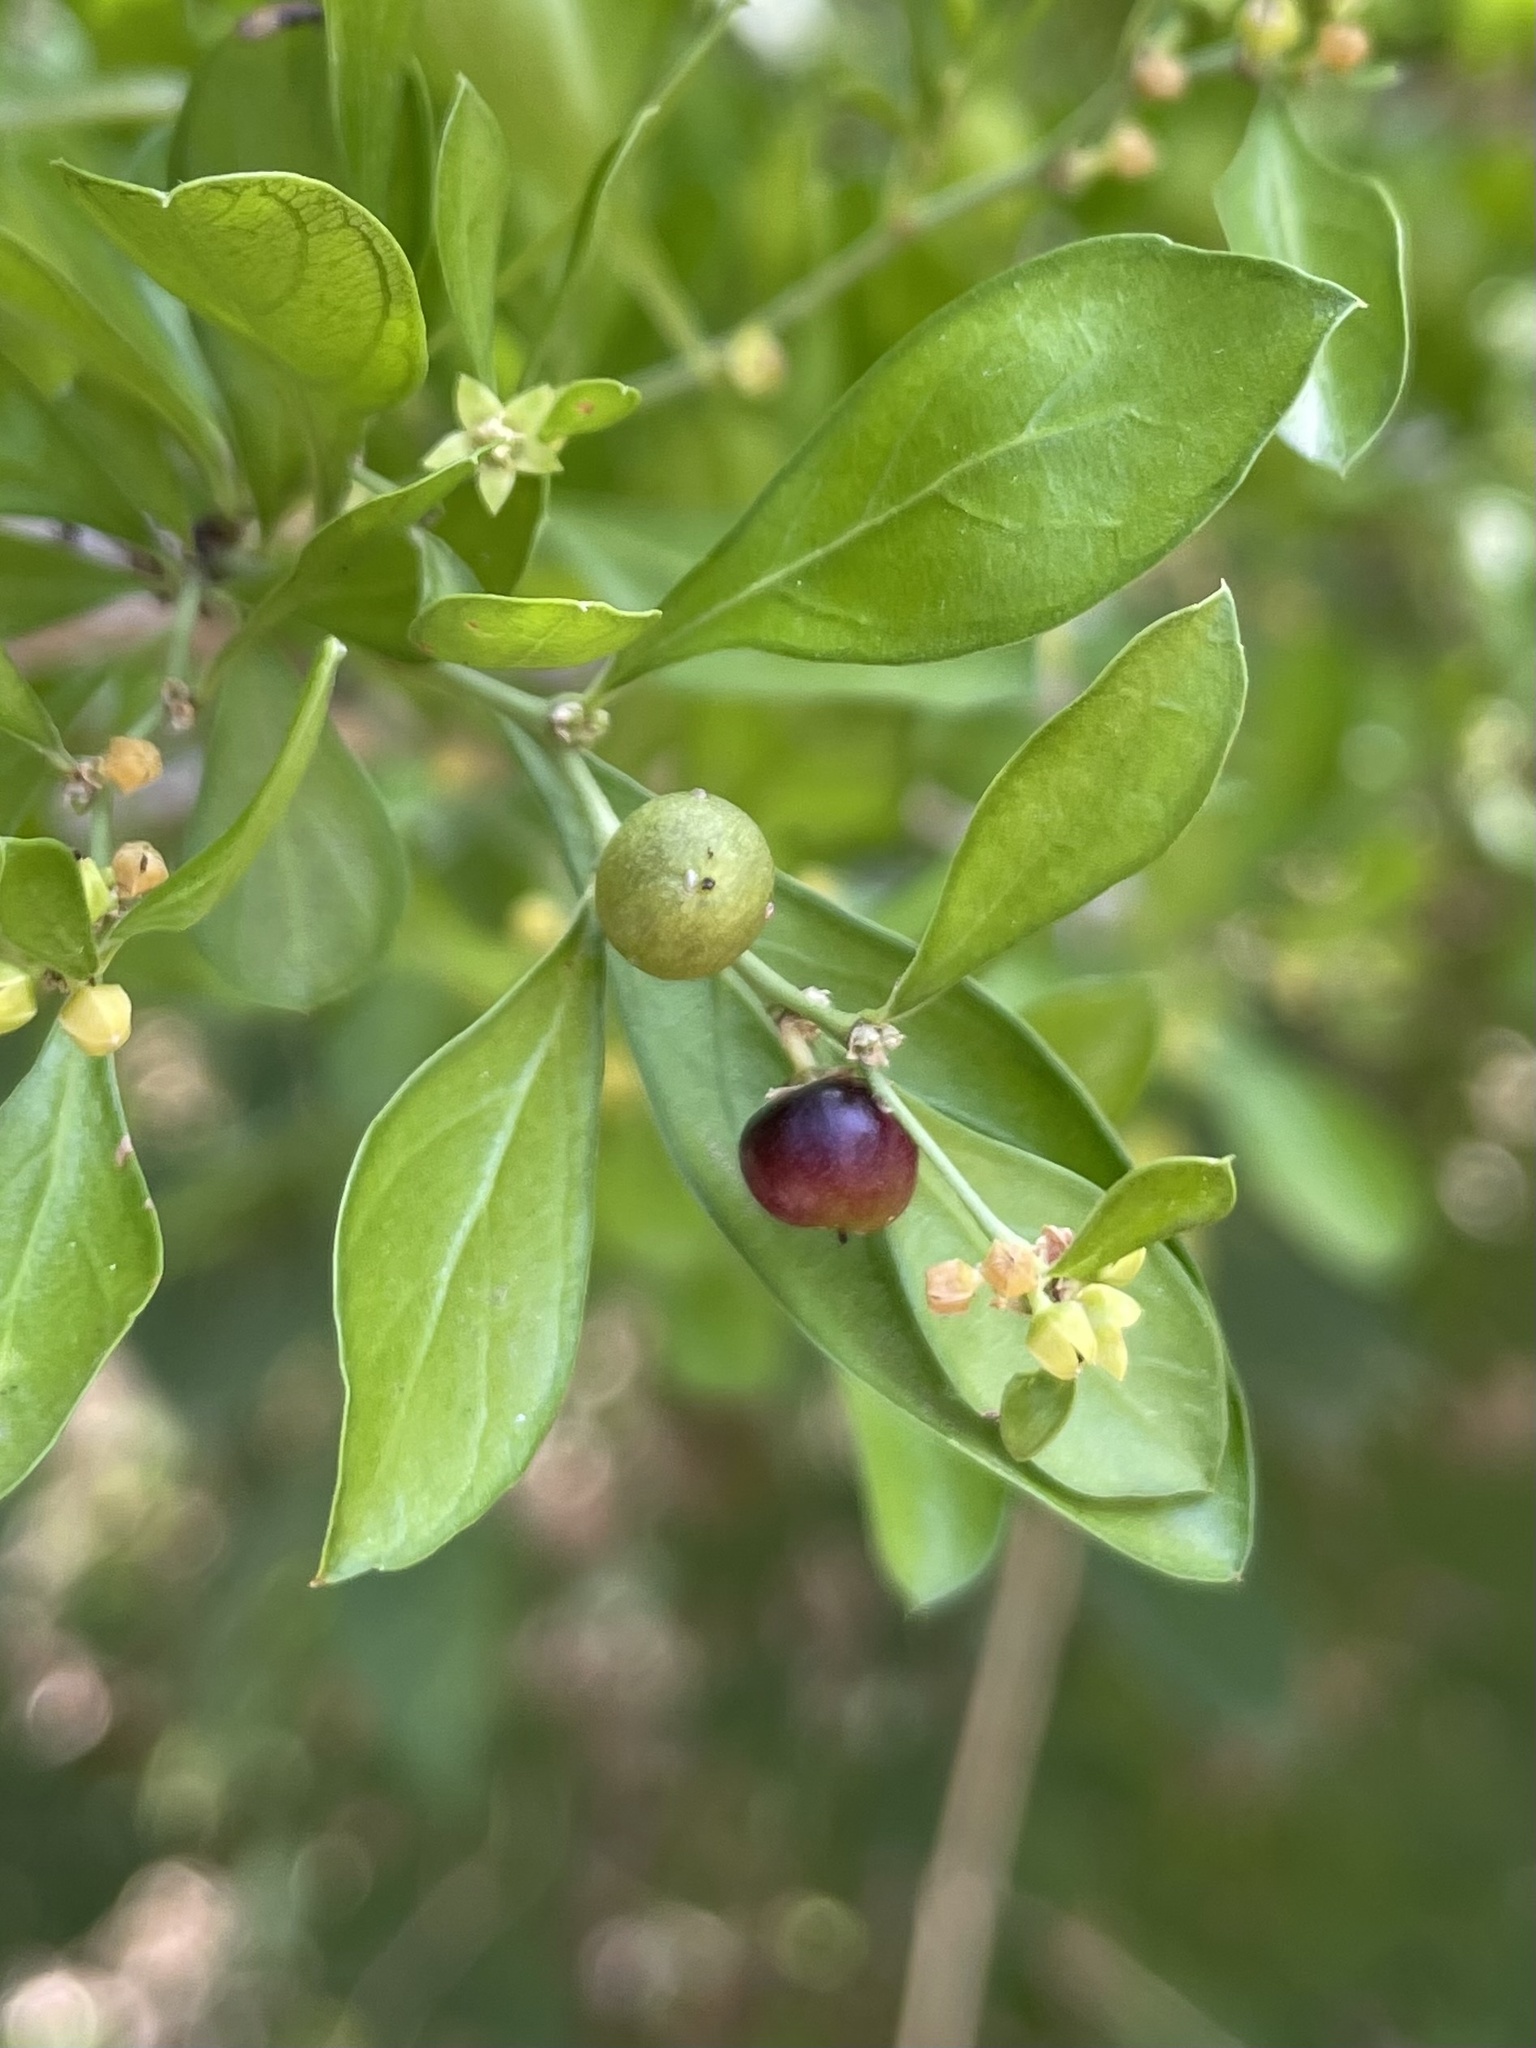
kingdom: Plantae
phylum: Tracheophyta
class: Magnoliopsida
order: Rosales
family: Rhamnaceae
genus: Condalia
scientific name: Condalia hookeri
